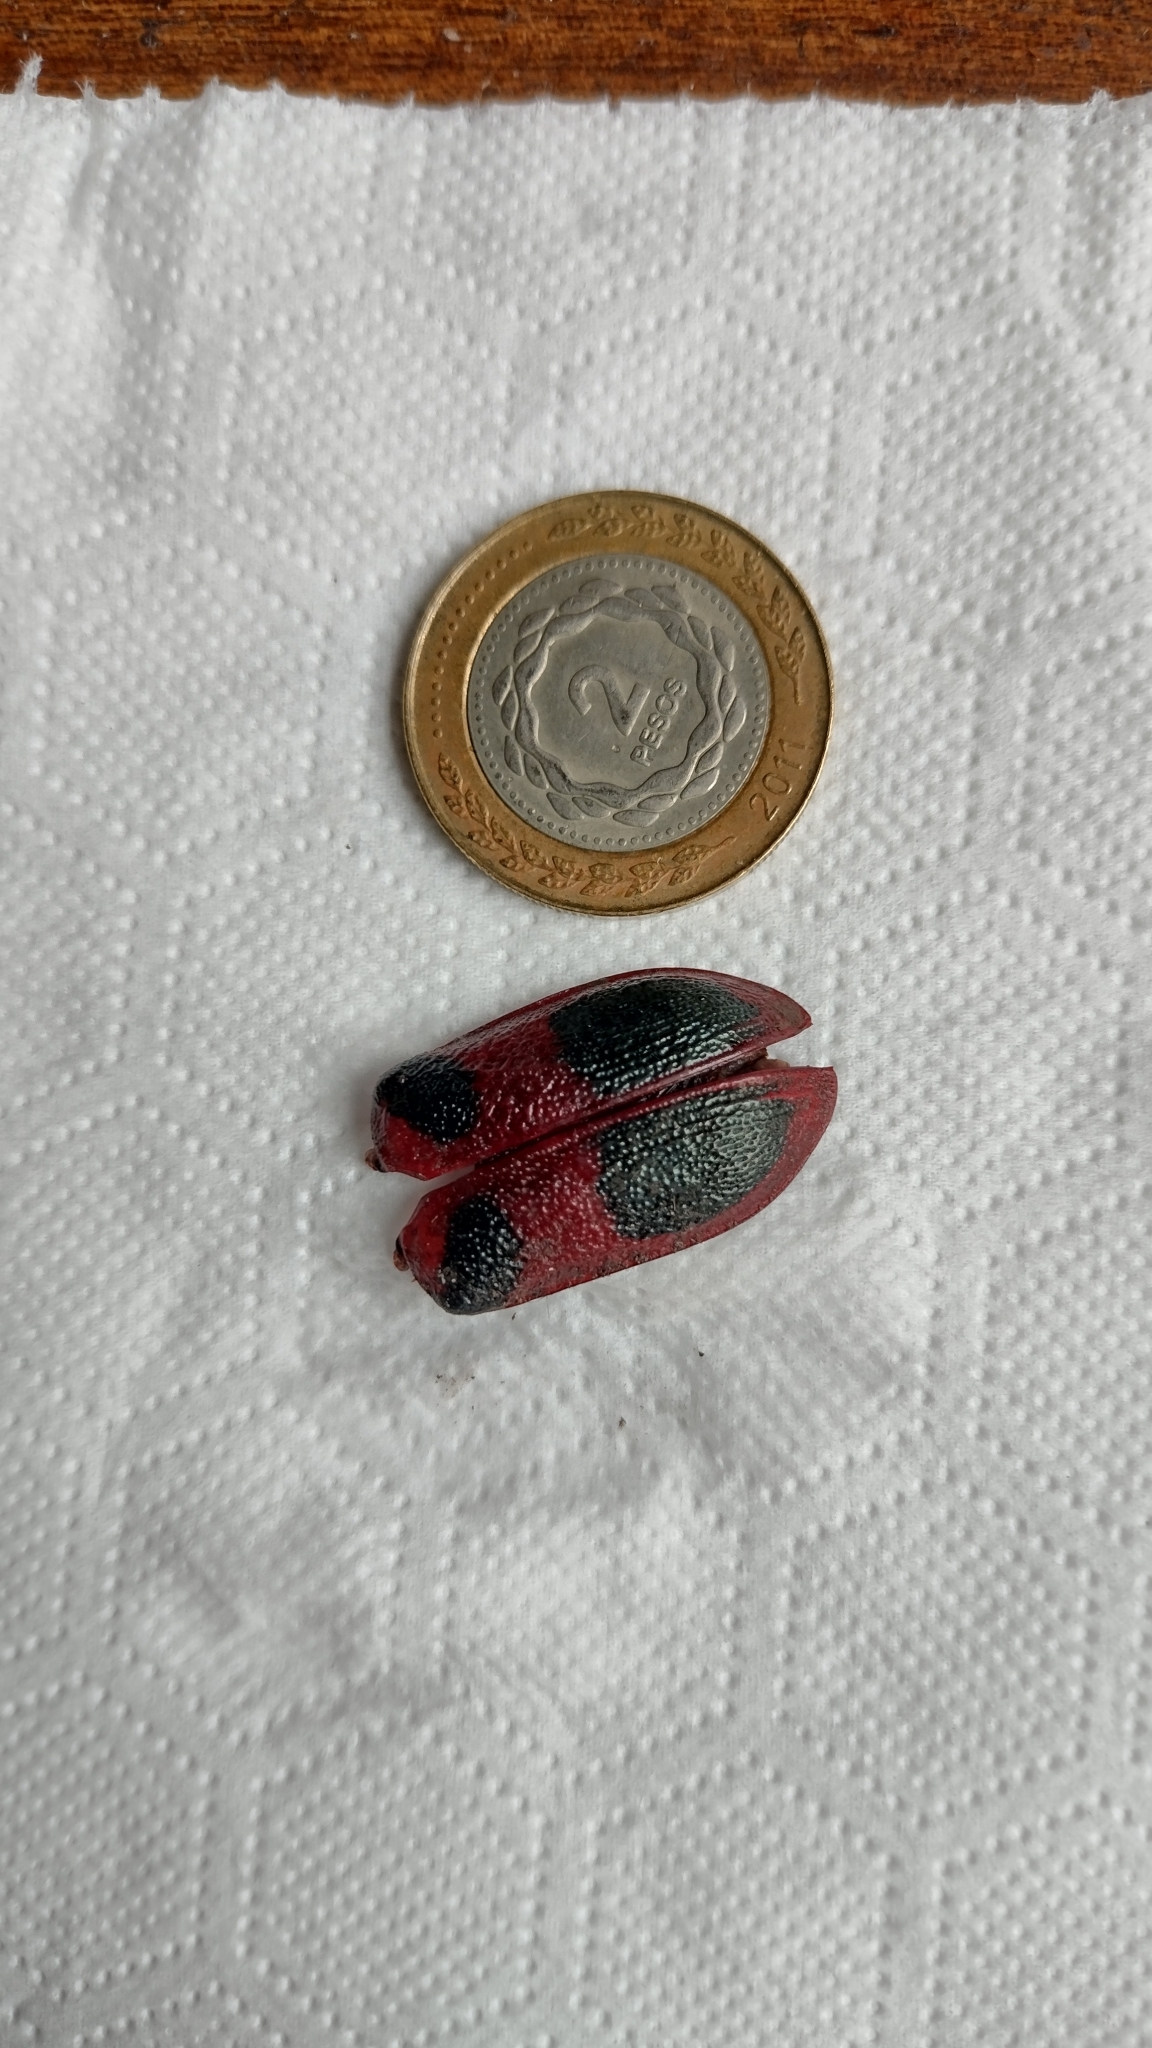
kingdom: Animalia
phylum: Arthropoda
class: Insecta
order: Coleoptera
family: Chrysomelidae
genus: Coraliomela
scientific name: Coraliomela quadrimaculata
